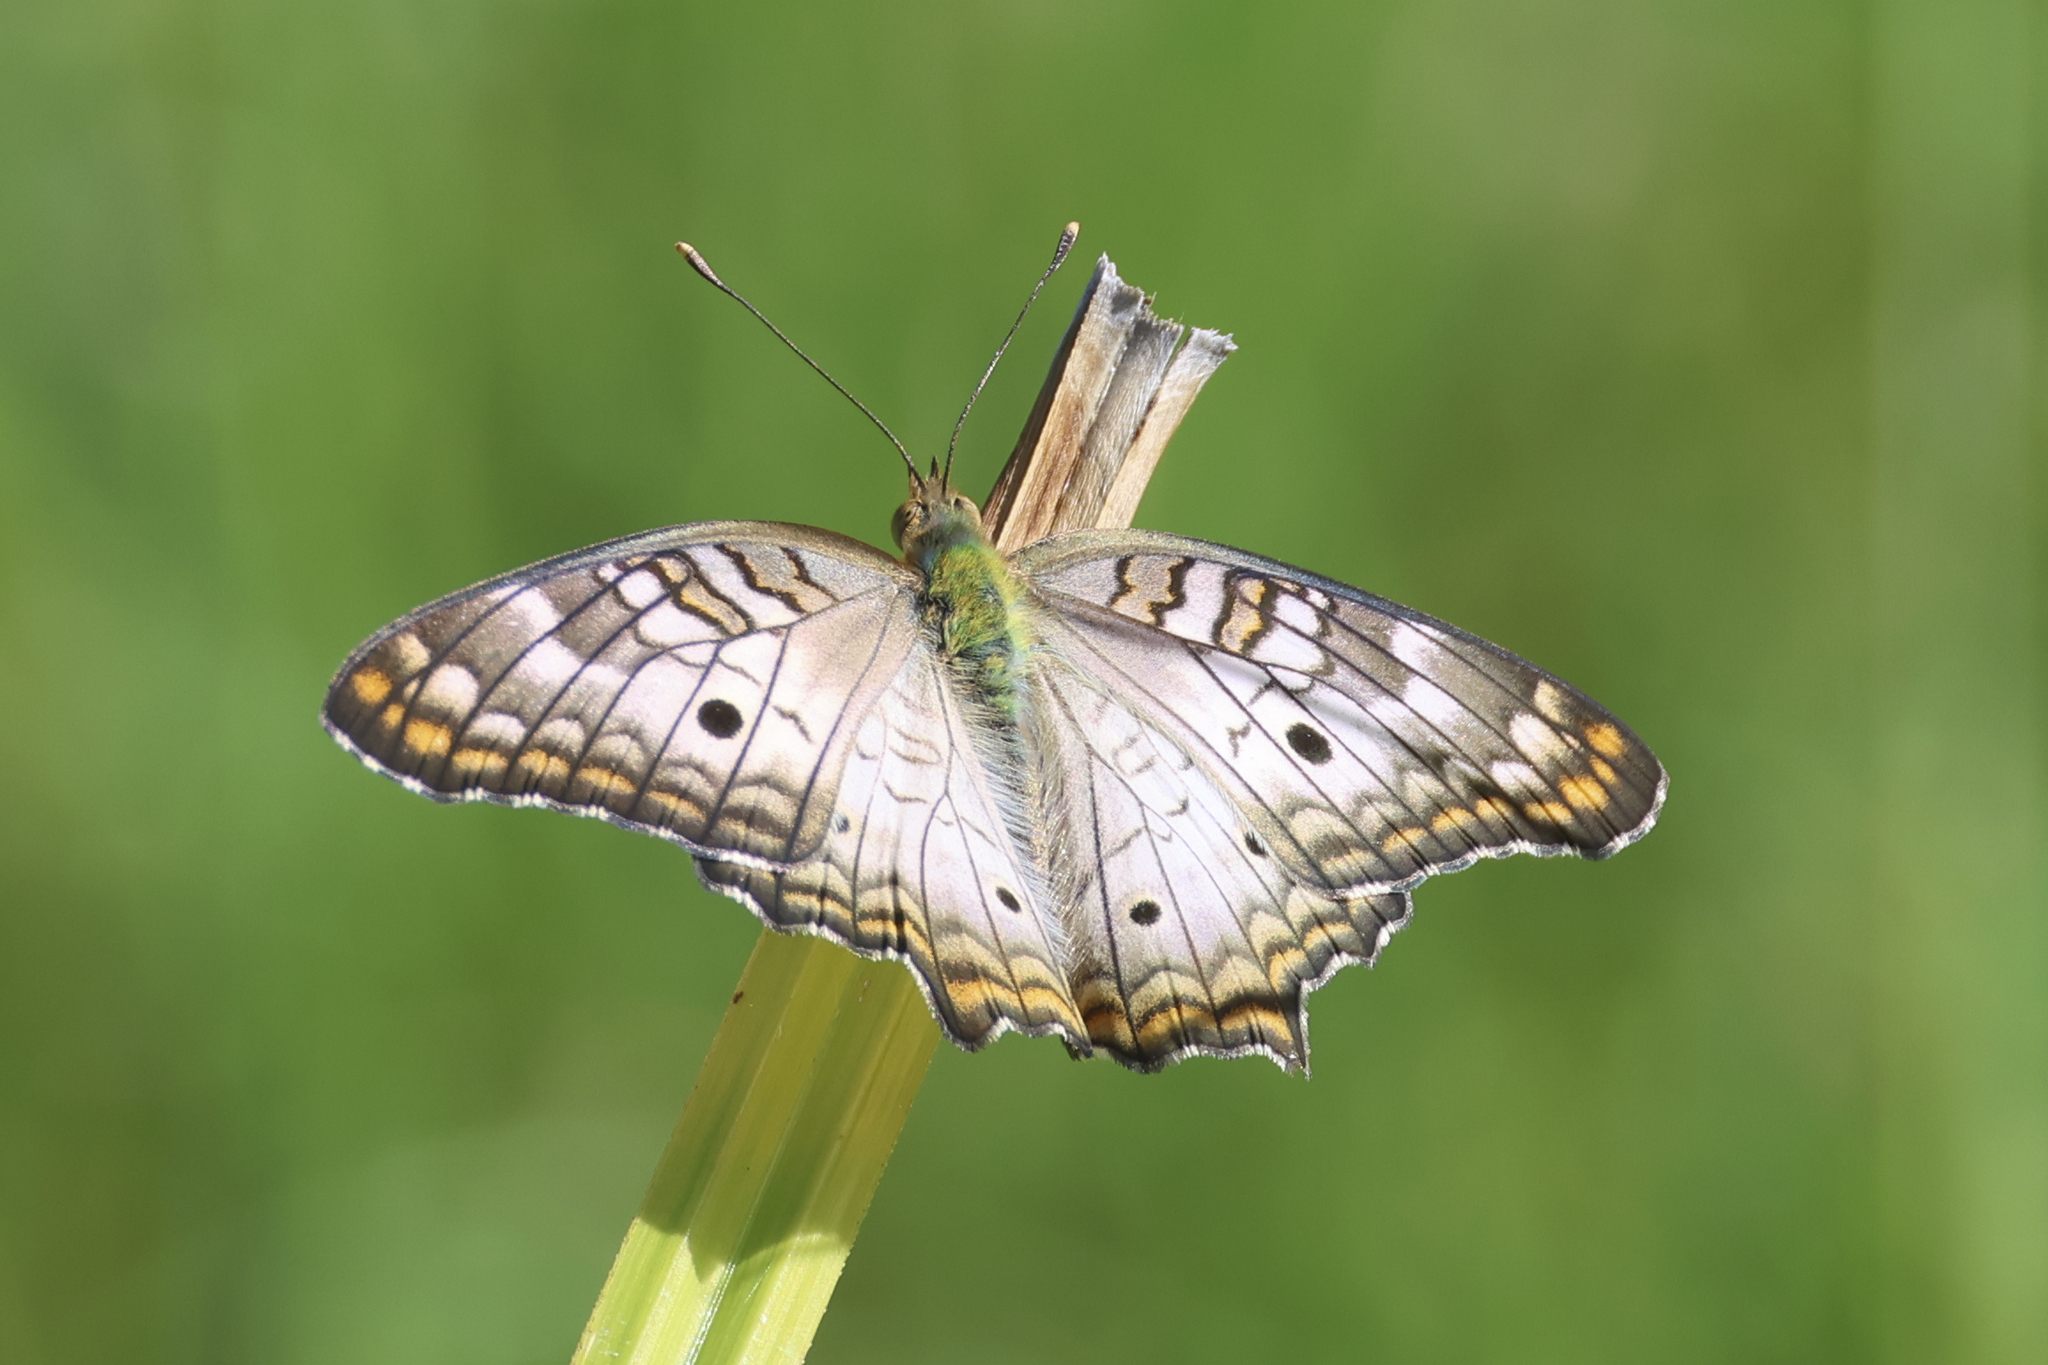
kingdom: Animalia
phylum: Arthropoda
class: Insecta
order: Lepidoptera
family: Nymphalidae
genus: Anartia
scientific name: Anartia jatrophae
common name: White peacock
